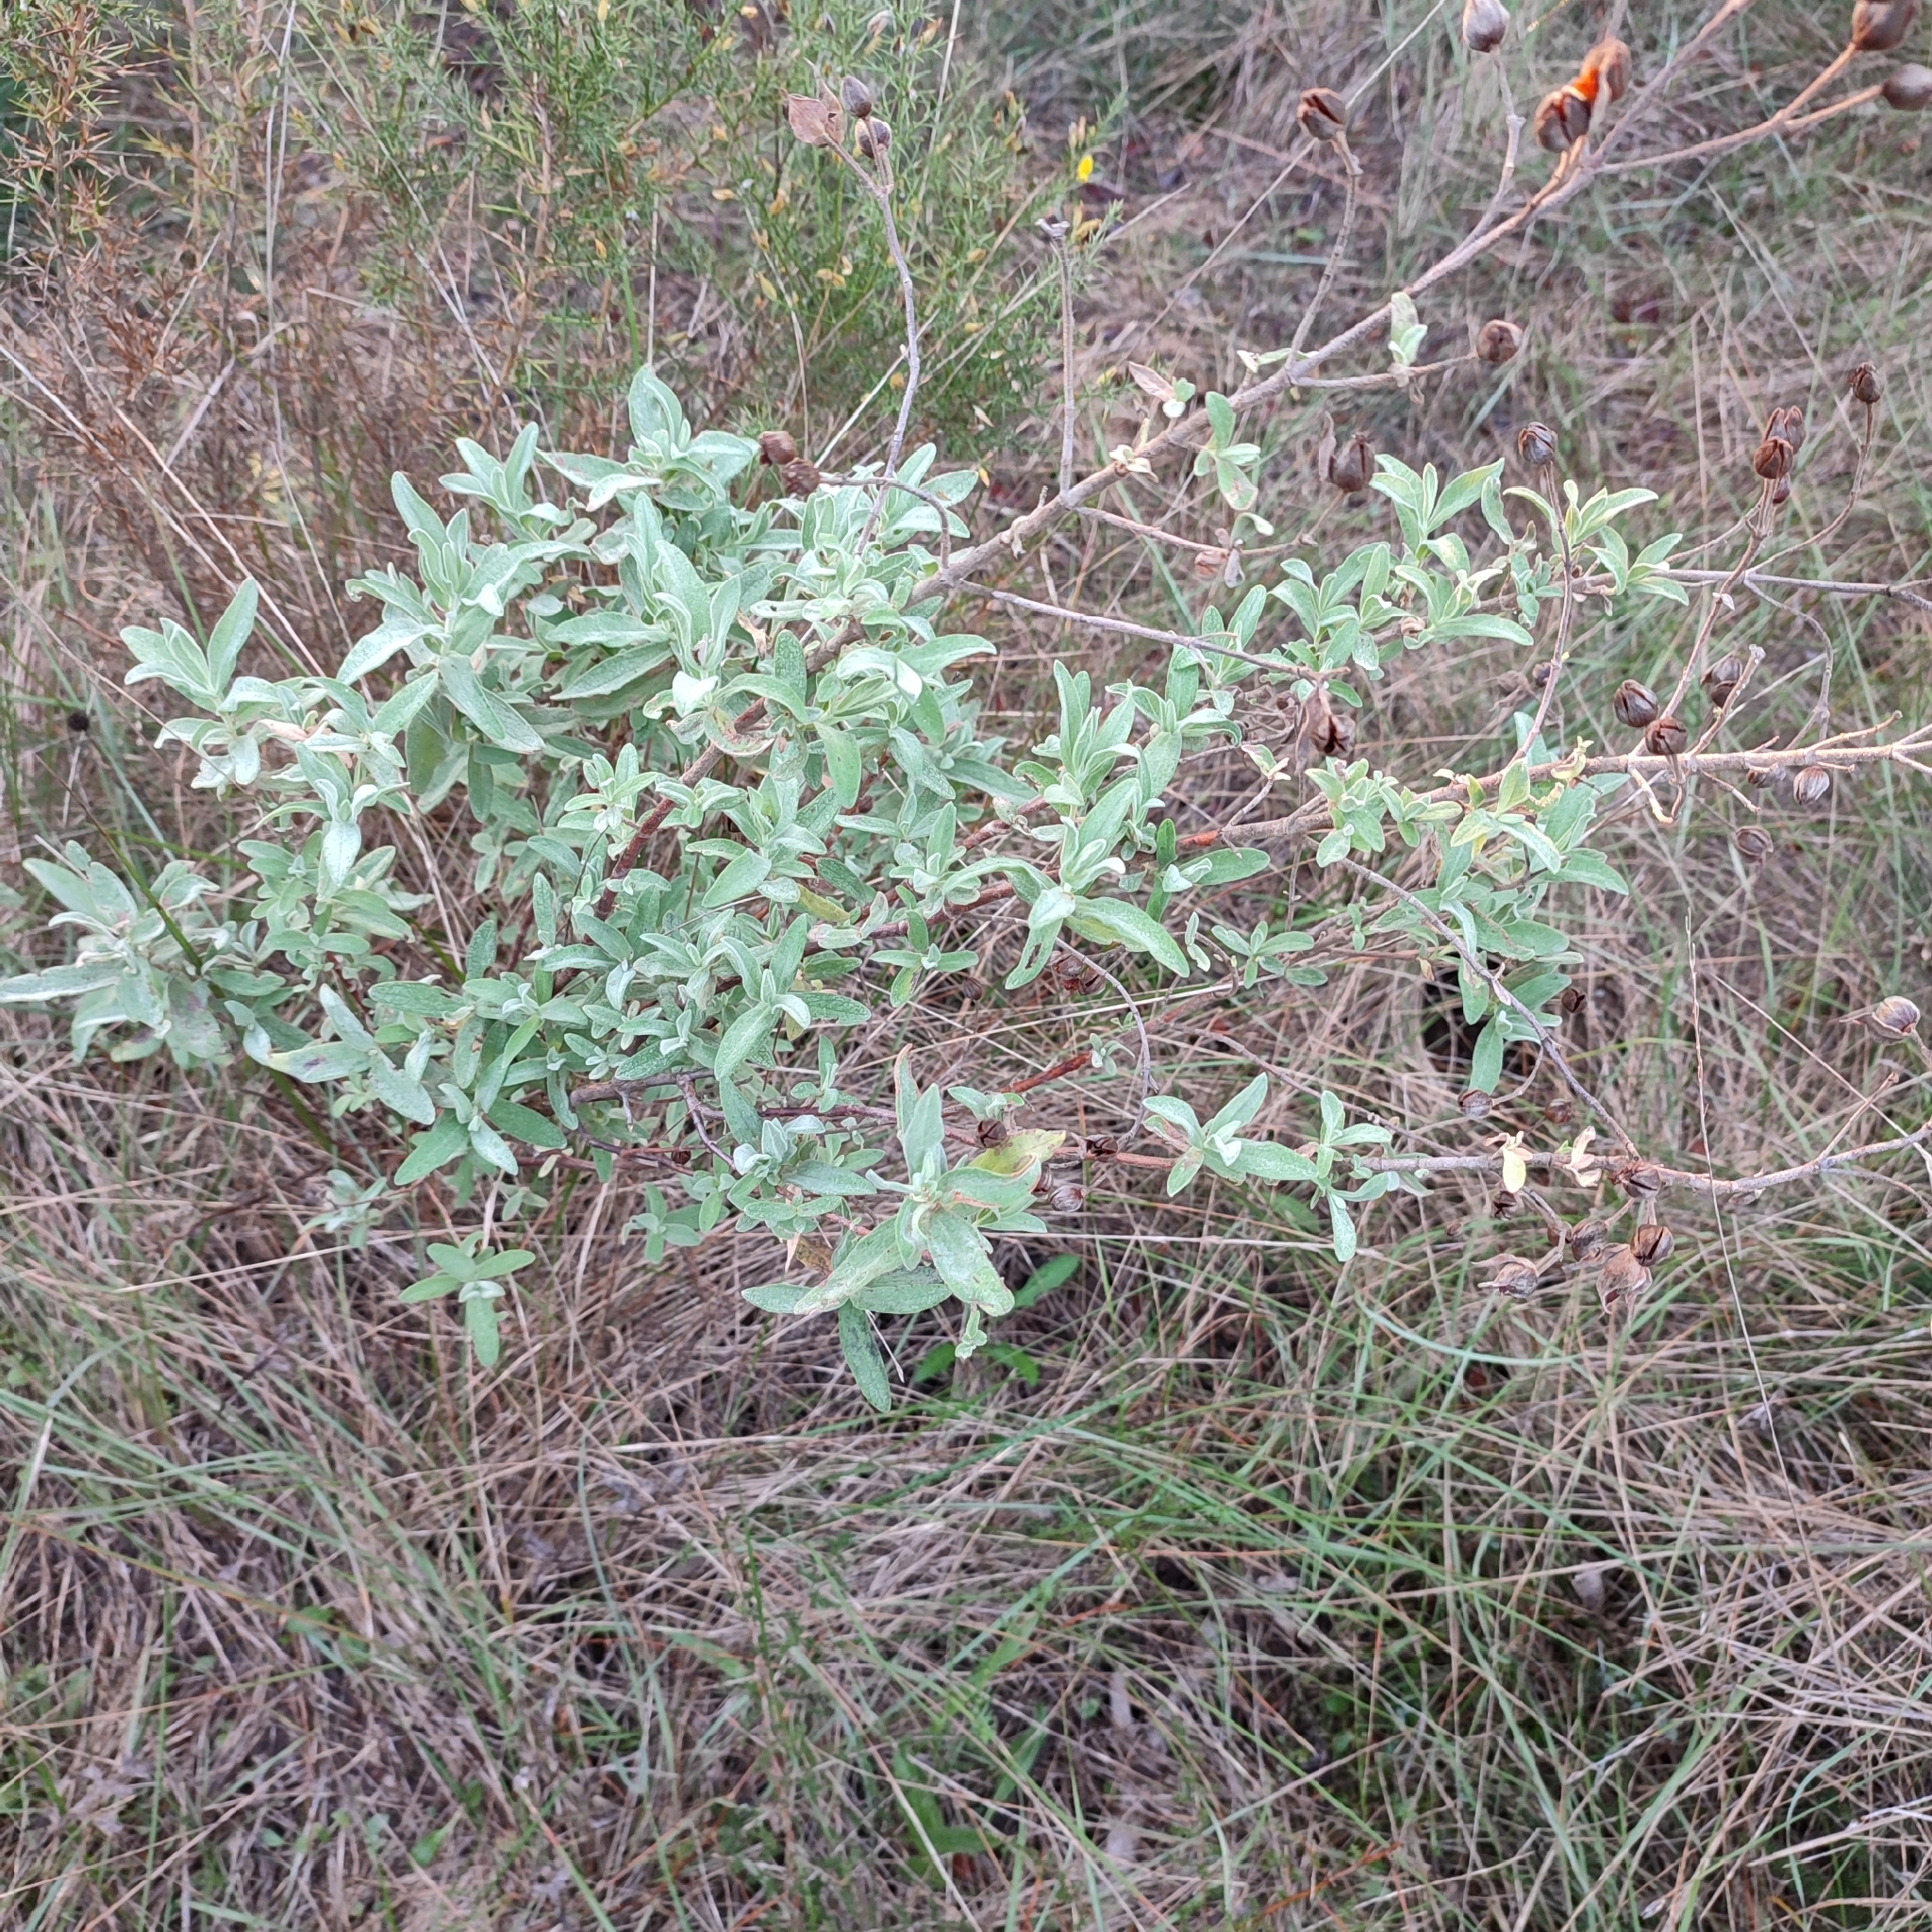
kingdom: Plantae
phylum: Tracheophyta
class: Magnoliopsida
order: Malvales
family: Cistaceae
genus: Cistus
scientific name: Cistus albidus
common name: White-leaf rock-rose
